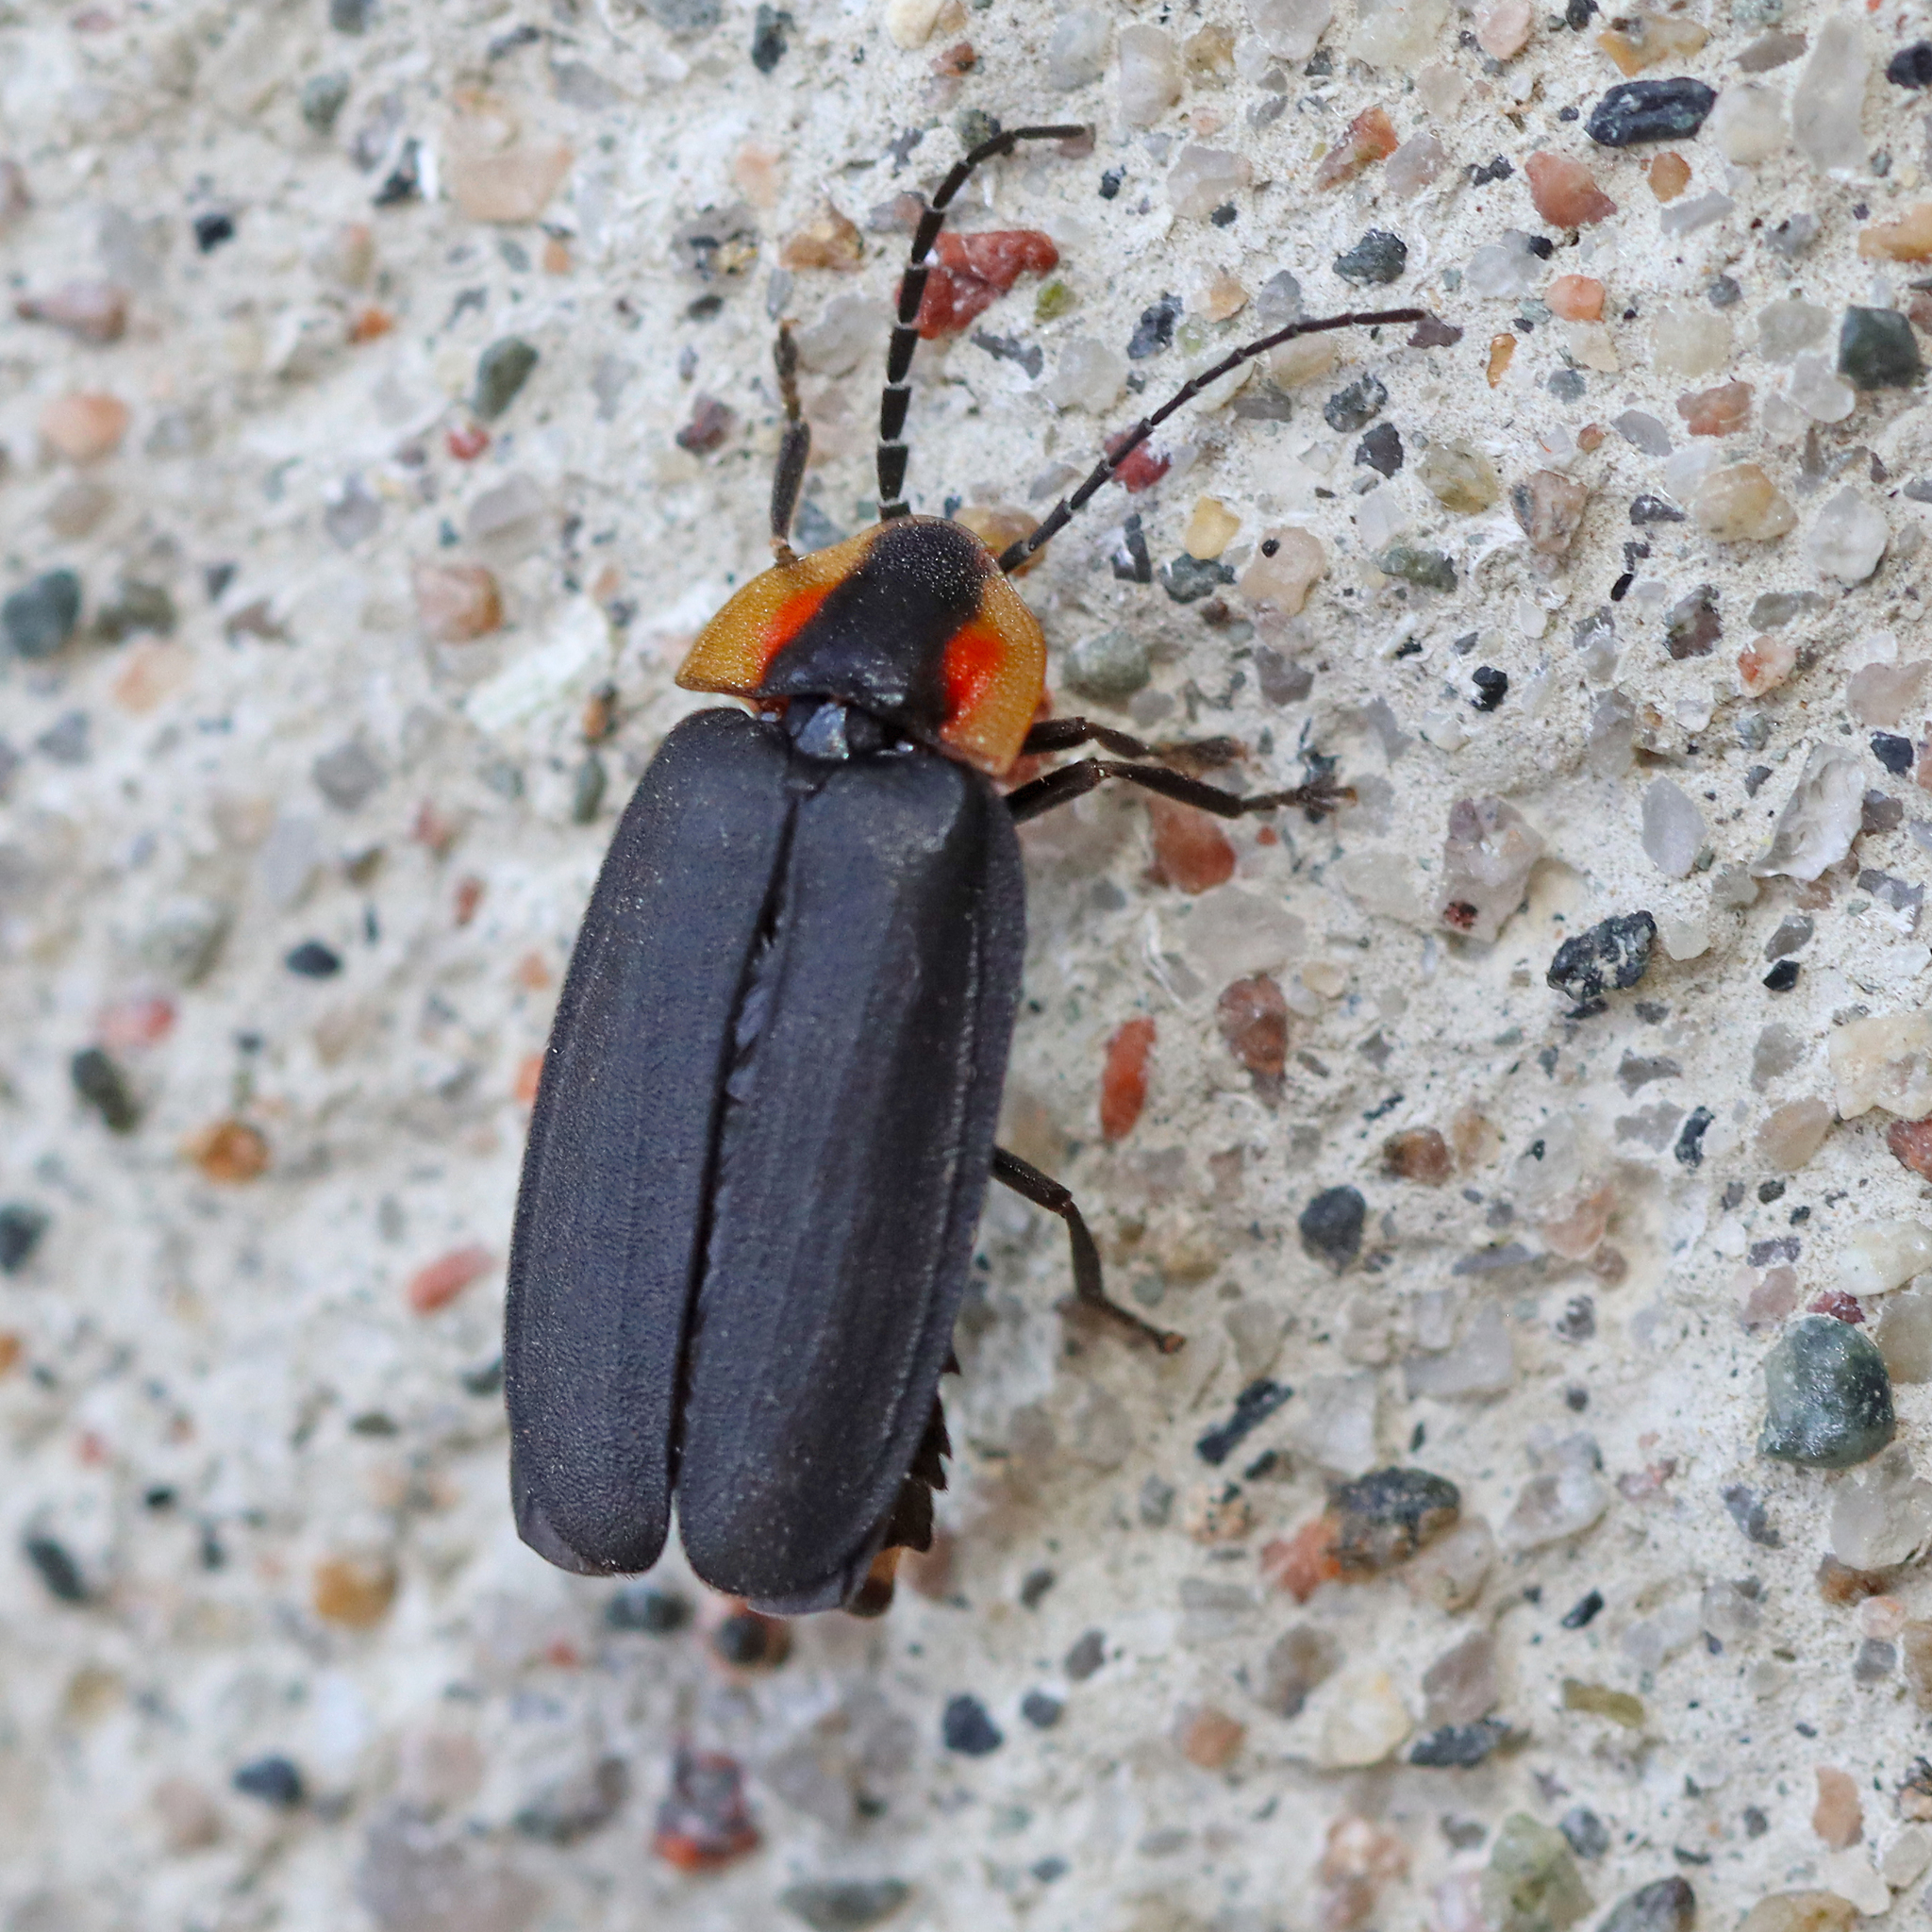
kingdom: Animalia
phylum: Arthropoda
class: Insecta
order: Coleoptera
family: Lampyridae
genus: Lucidota
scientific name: Lucidota atra
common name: Black firefly
